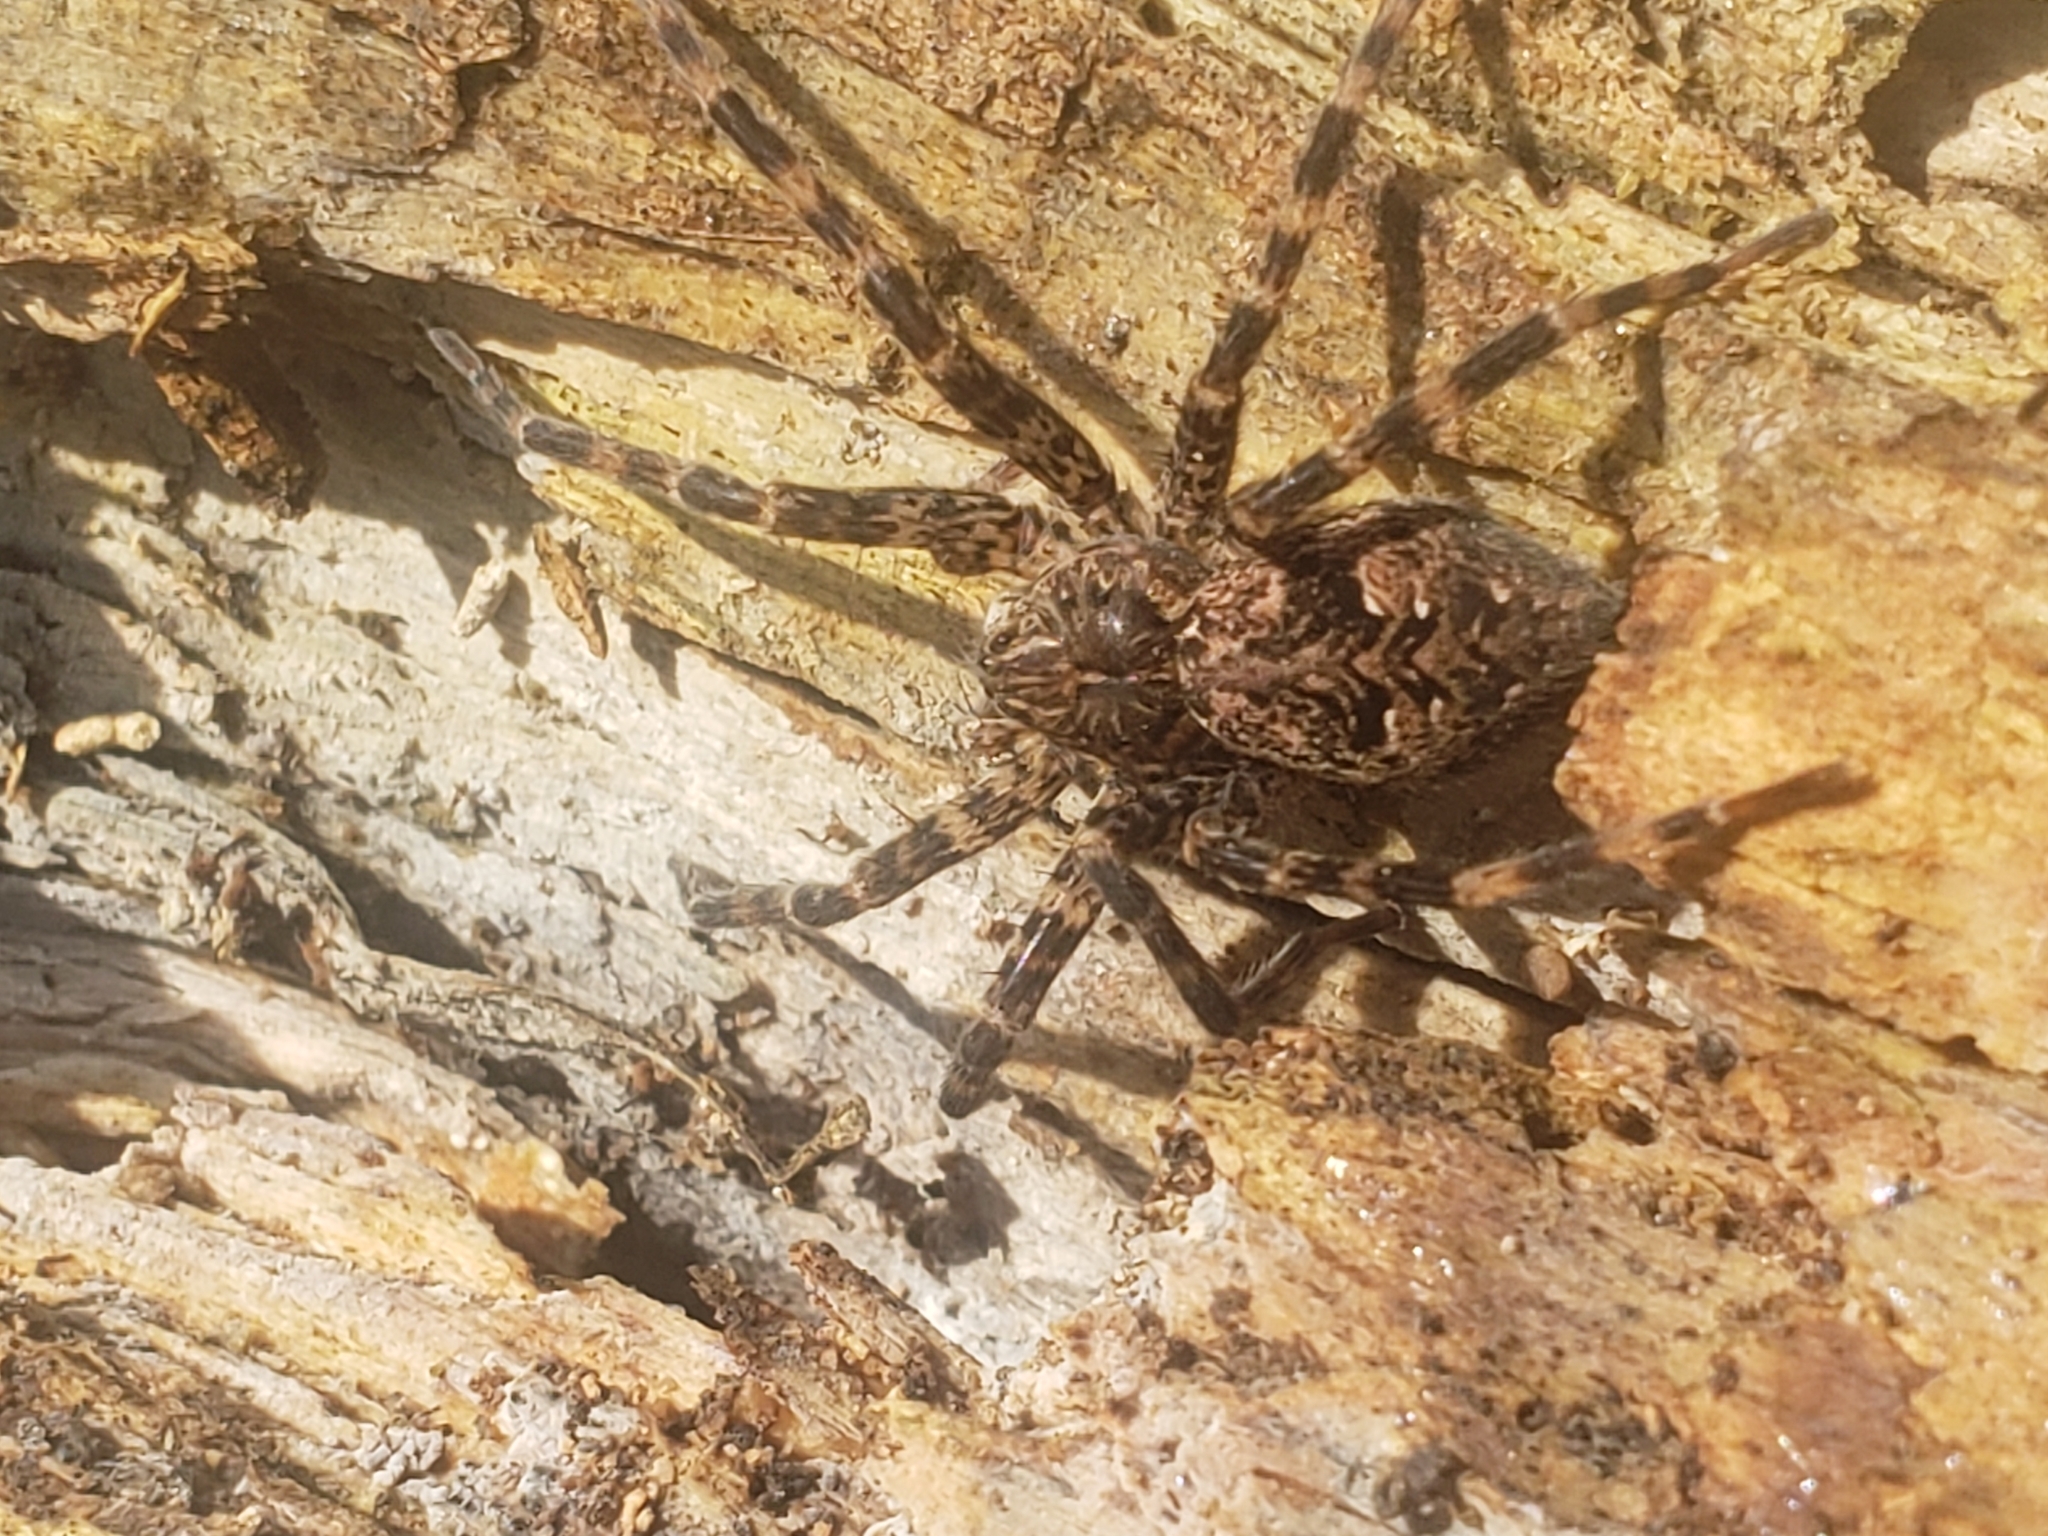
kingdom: Animalia
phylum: Arthropoda
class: Arachnida
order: Araneae
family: Pisauridae
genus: Dolomedes
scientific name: Dolomedes tenebrosus
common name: Dark fishing spider
